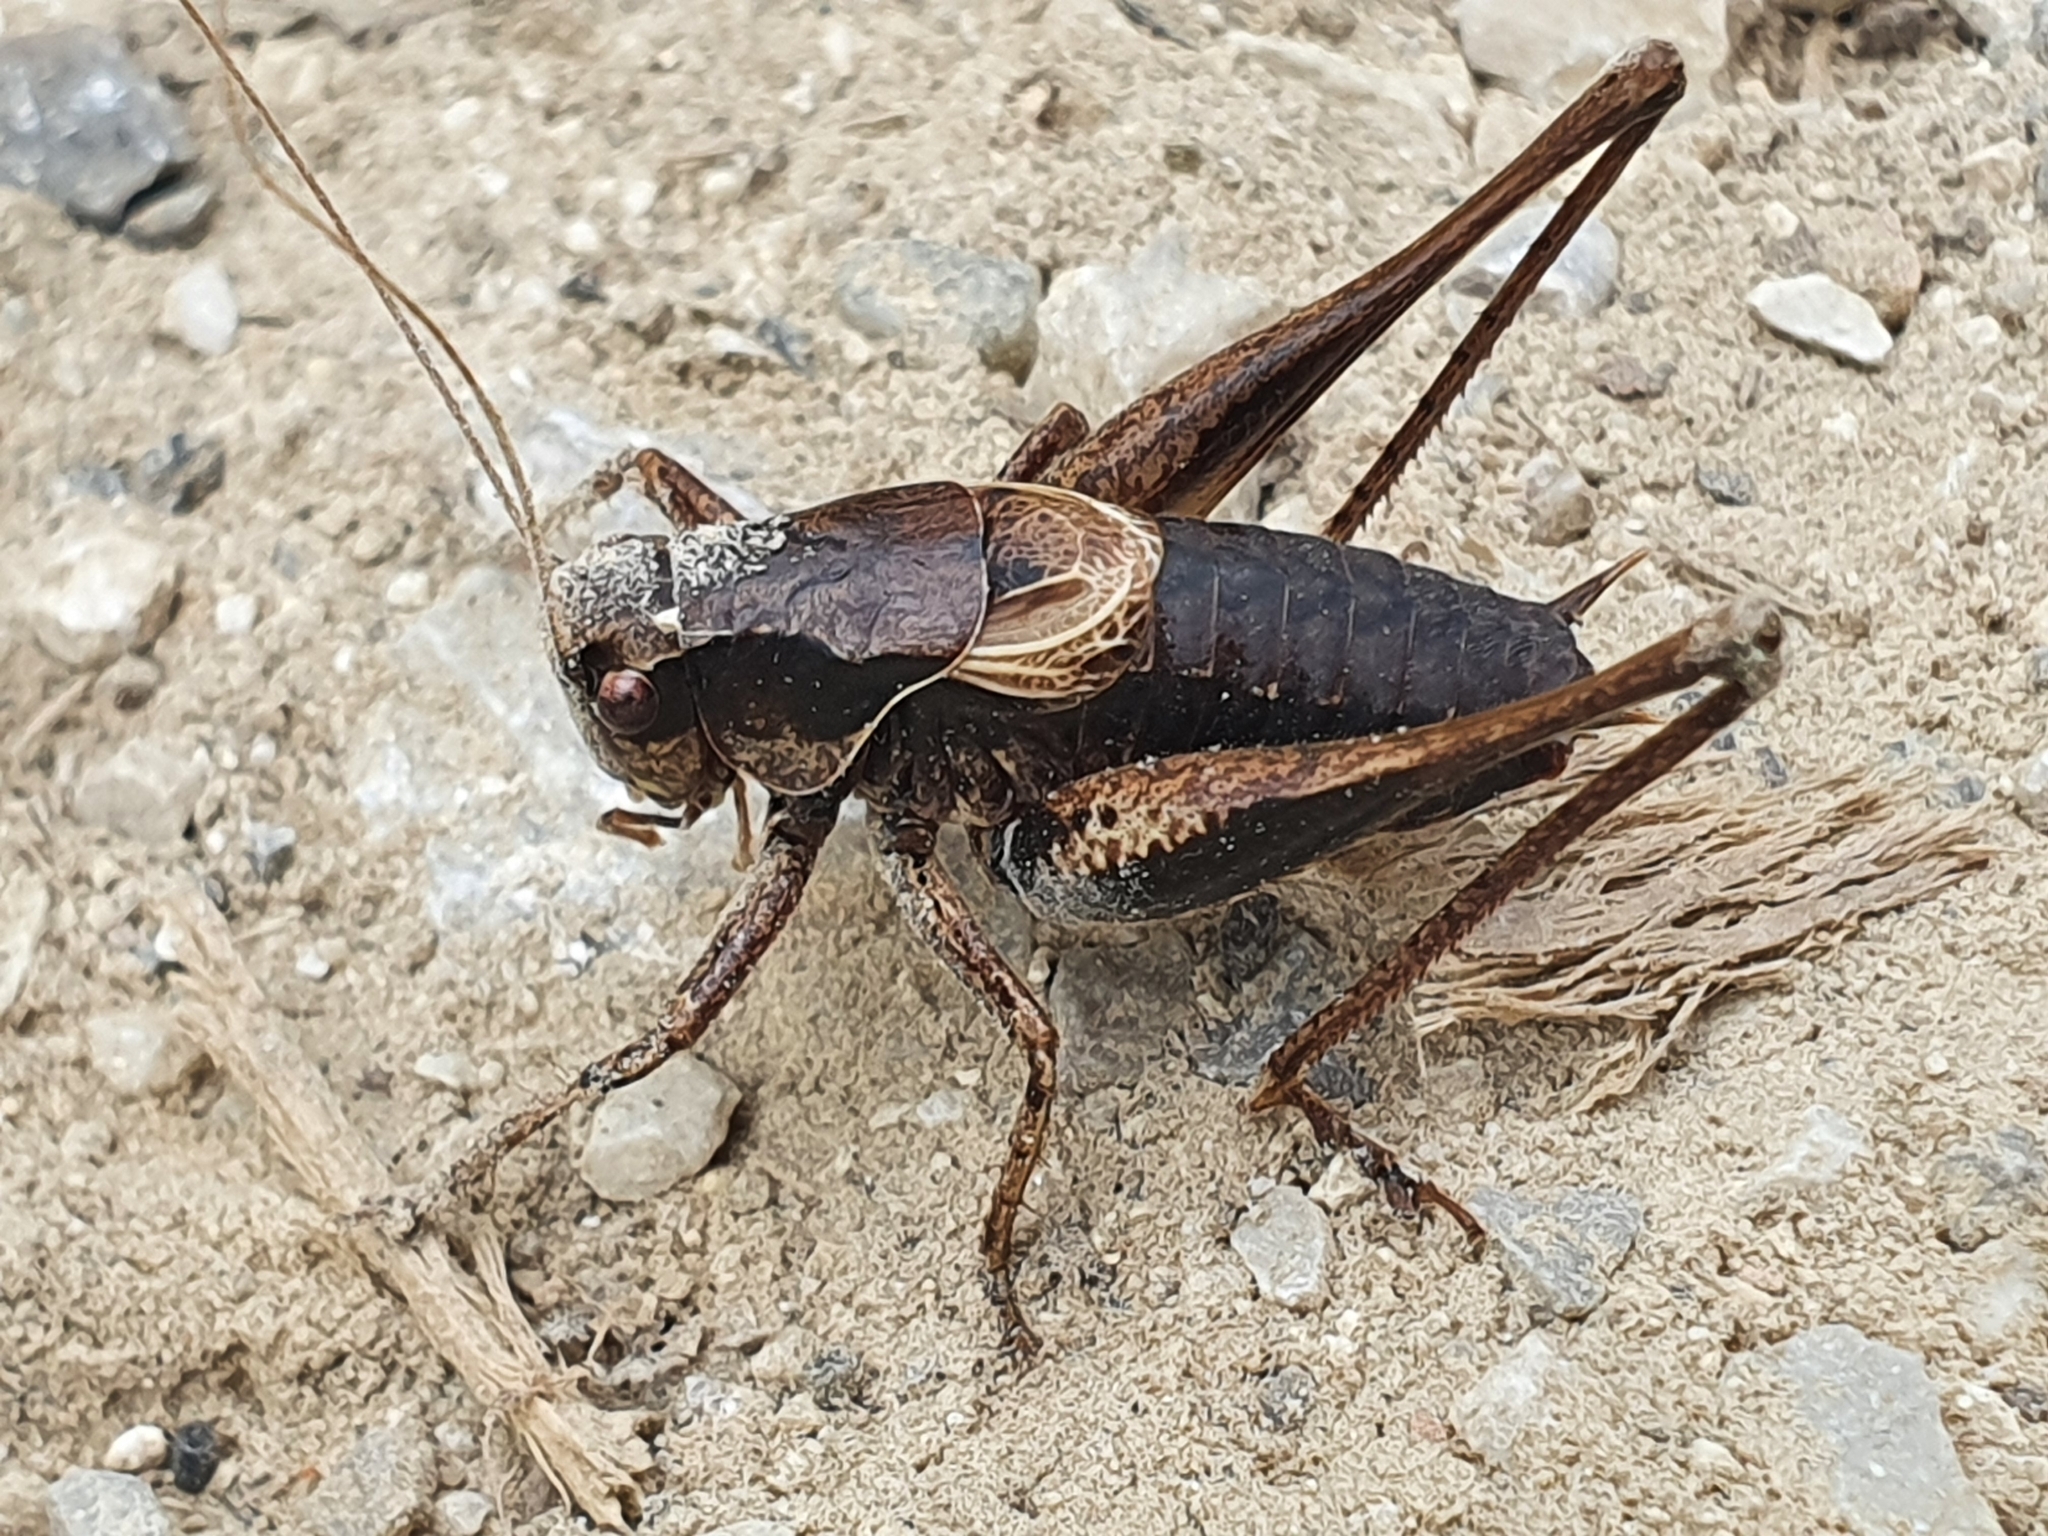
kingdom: Animalia
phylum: Arthropoda
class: Insecta
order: Orthoptera
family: Tettigoniidae
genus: Pholidoptera
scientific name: Pholidoptera griseoaptera
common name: Dark bush-cricket
